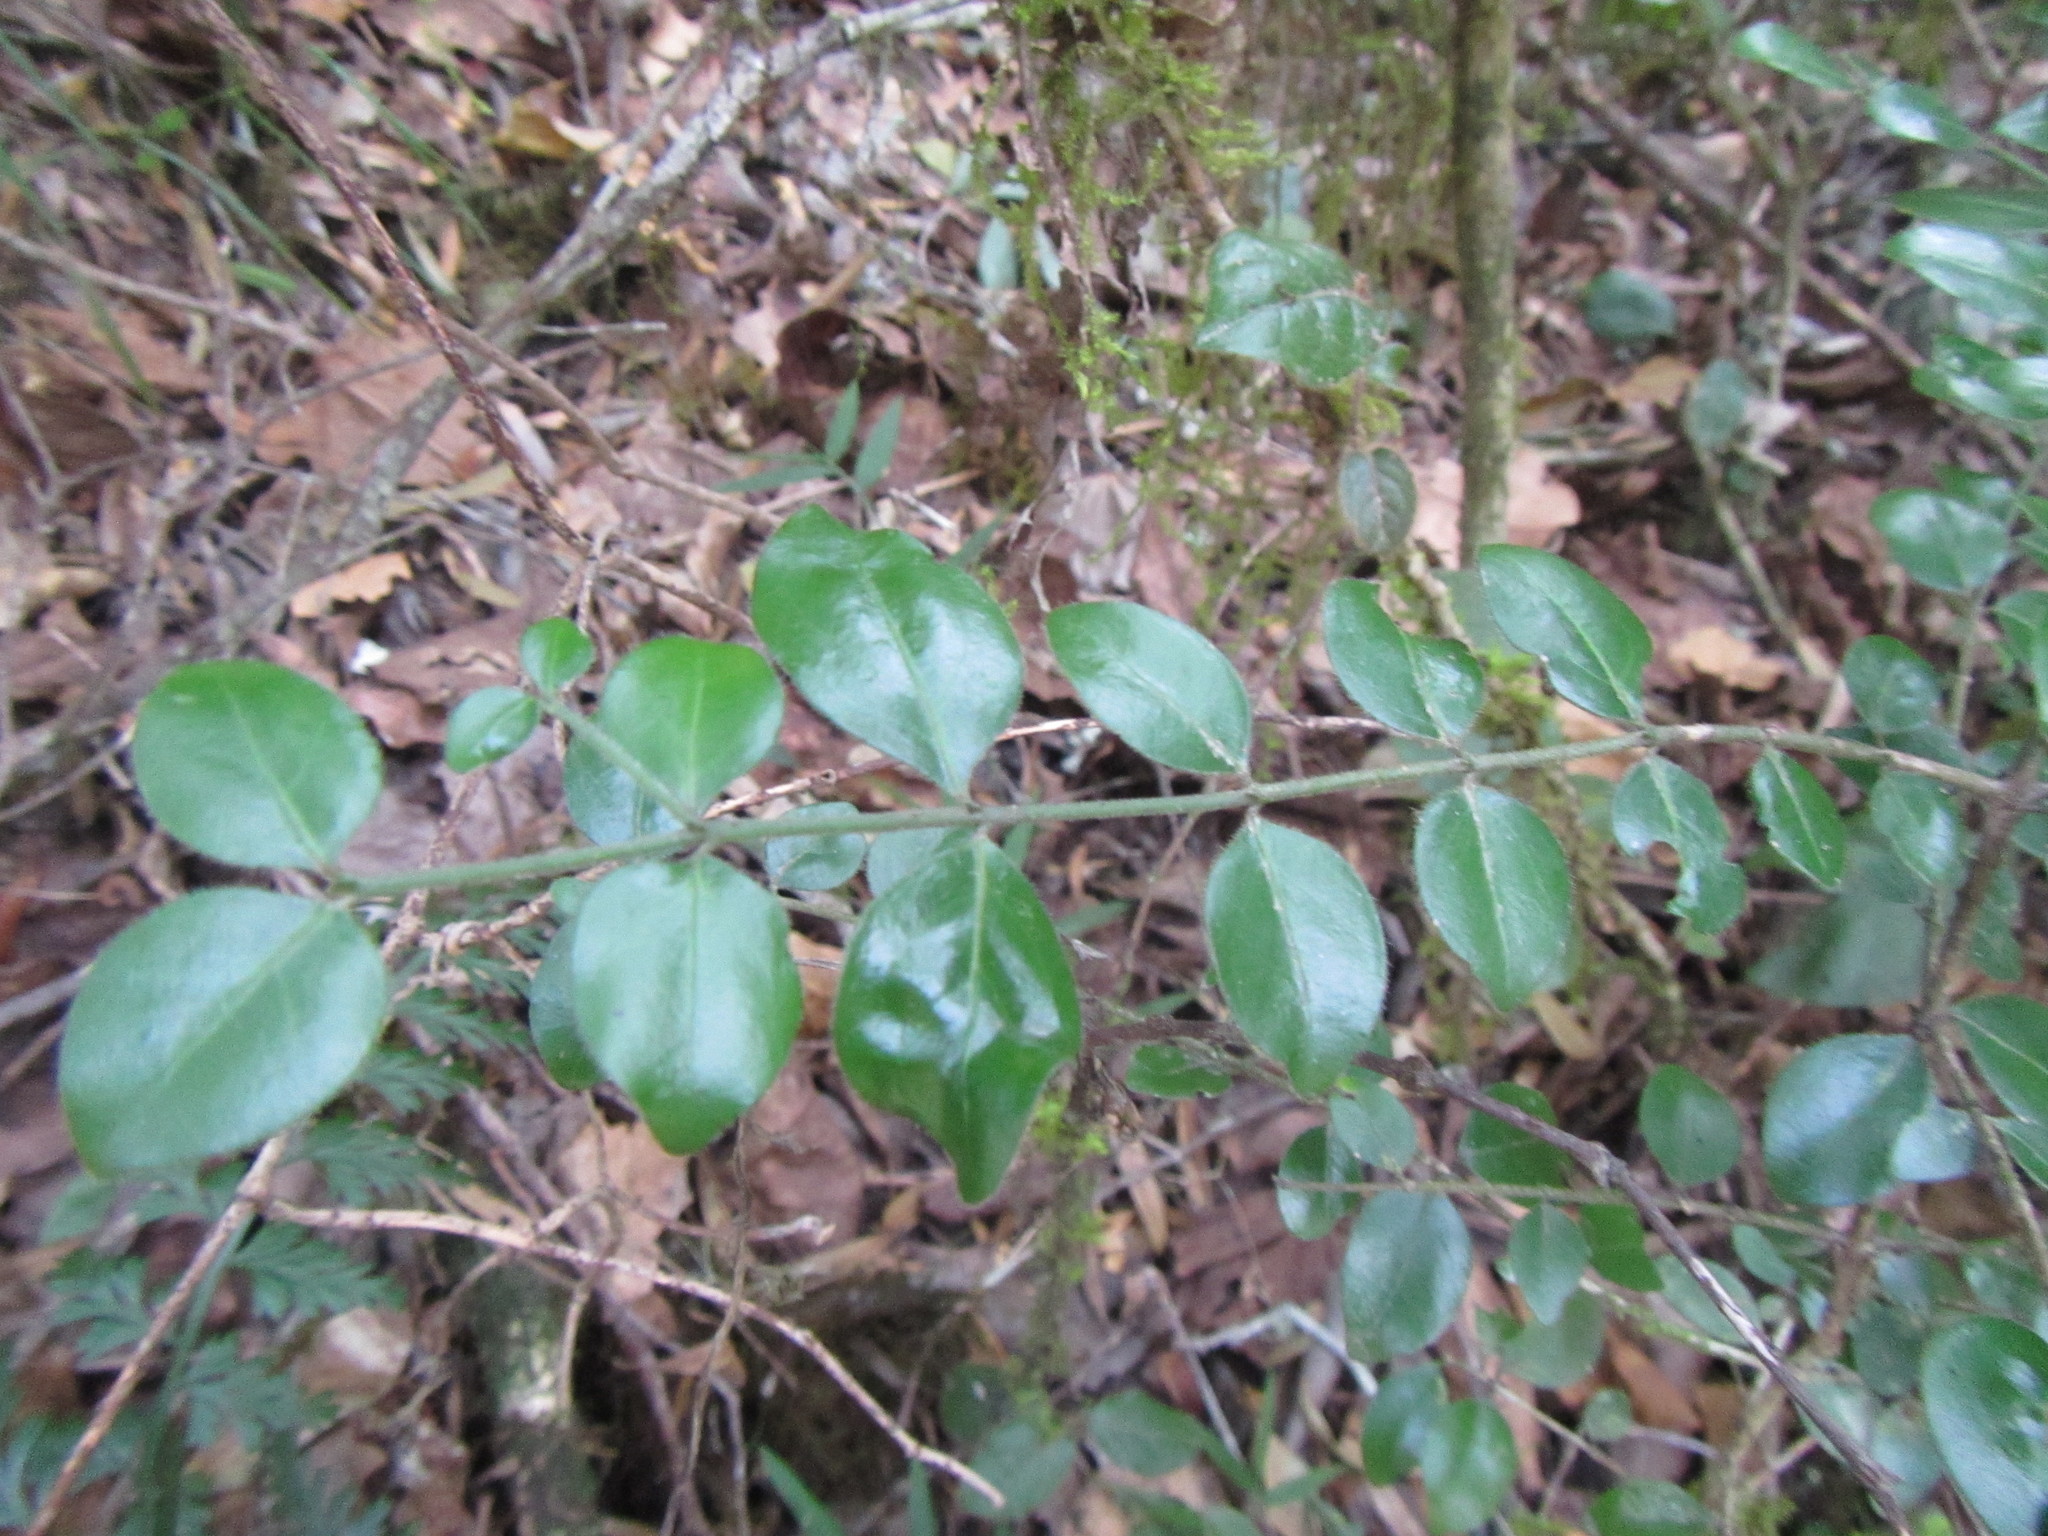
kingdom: Plantae
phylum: Tracheophyta
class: Magnoliopsida
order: Gentianales
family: Rubiaceae
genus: Afrocanthium
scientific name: Afrocanthium mundianum
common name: Rock-alder
